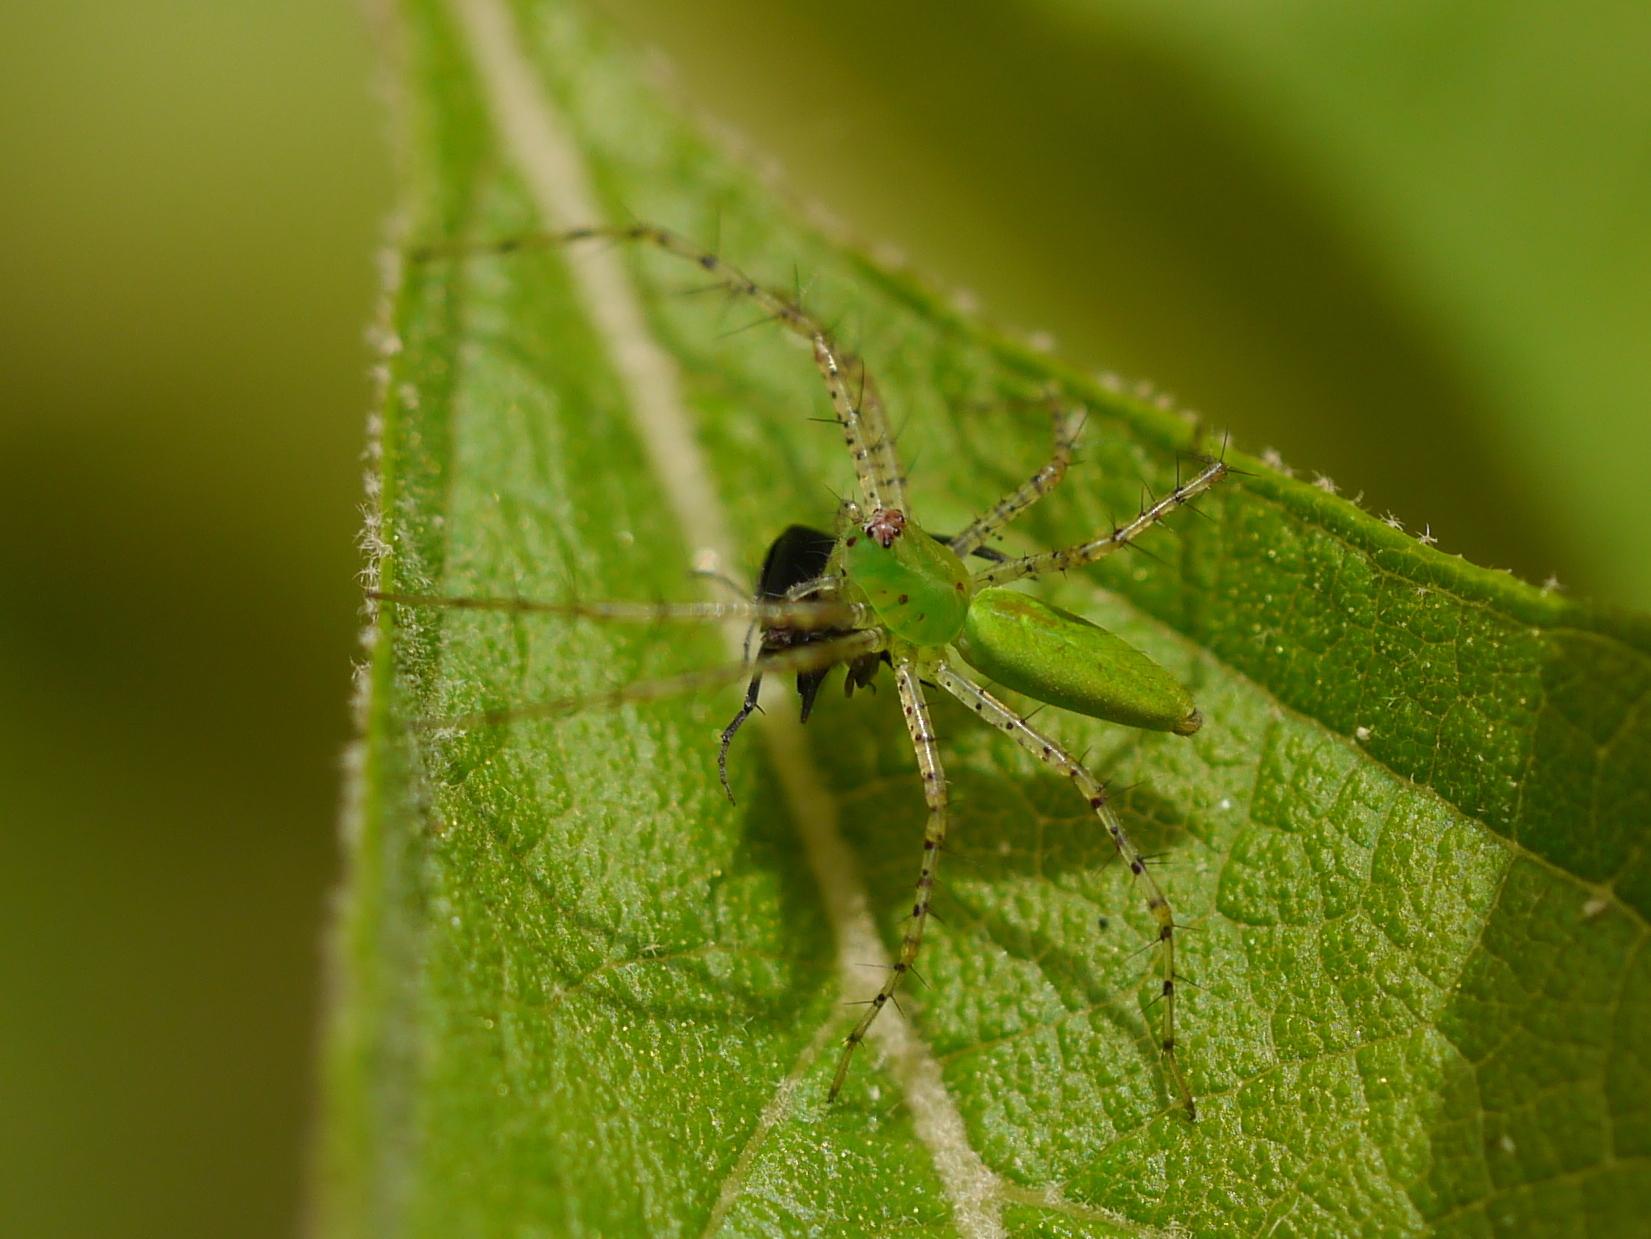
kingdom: Animalia
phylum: Arthropoda
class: Arachnida
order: Araneae
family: Oxyopidae
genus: Peucetia
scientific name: Peucetia viridans
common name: Lynx spiders
